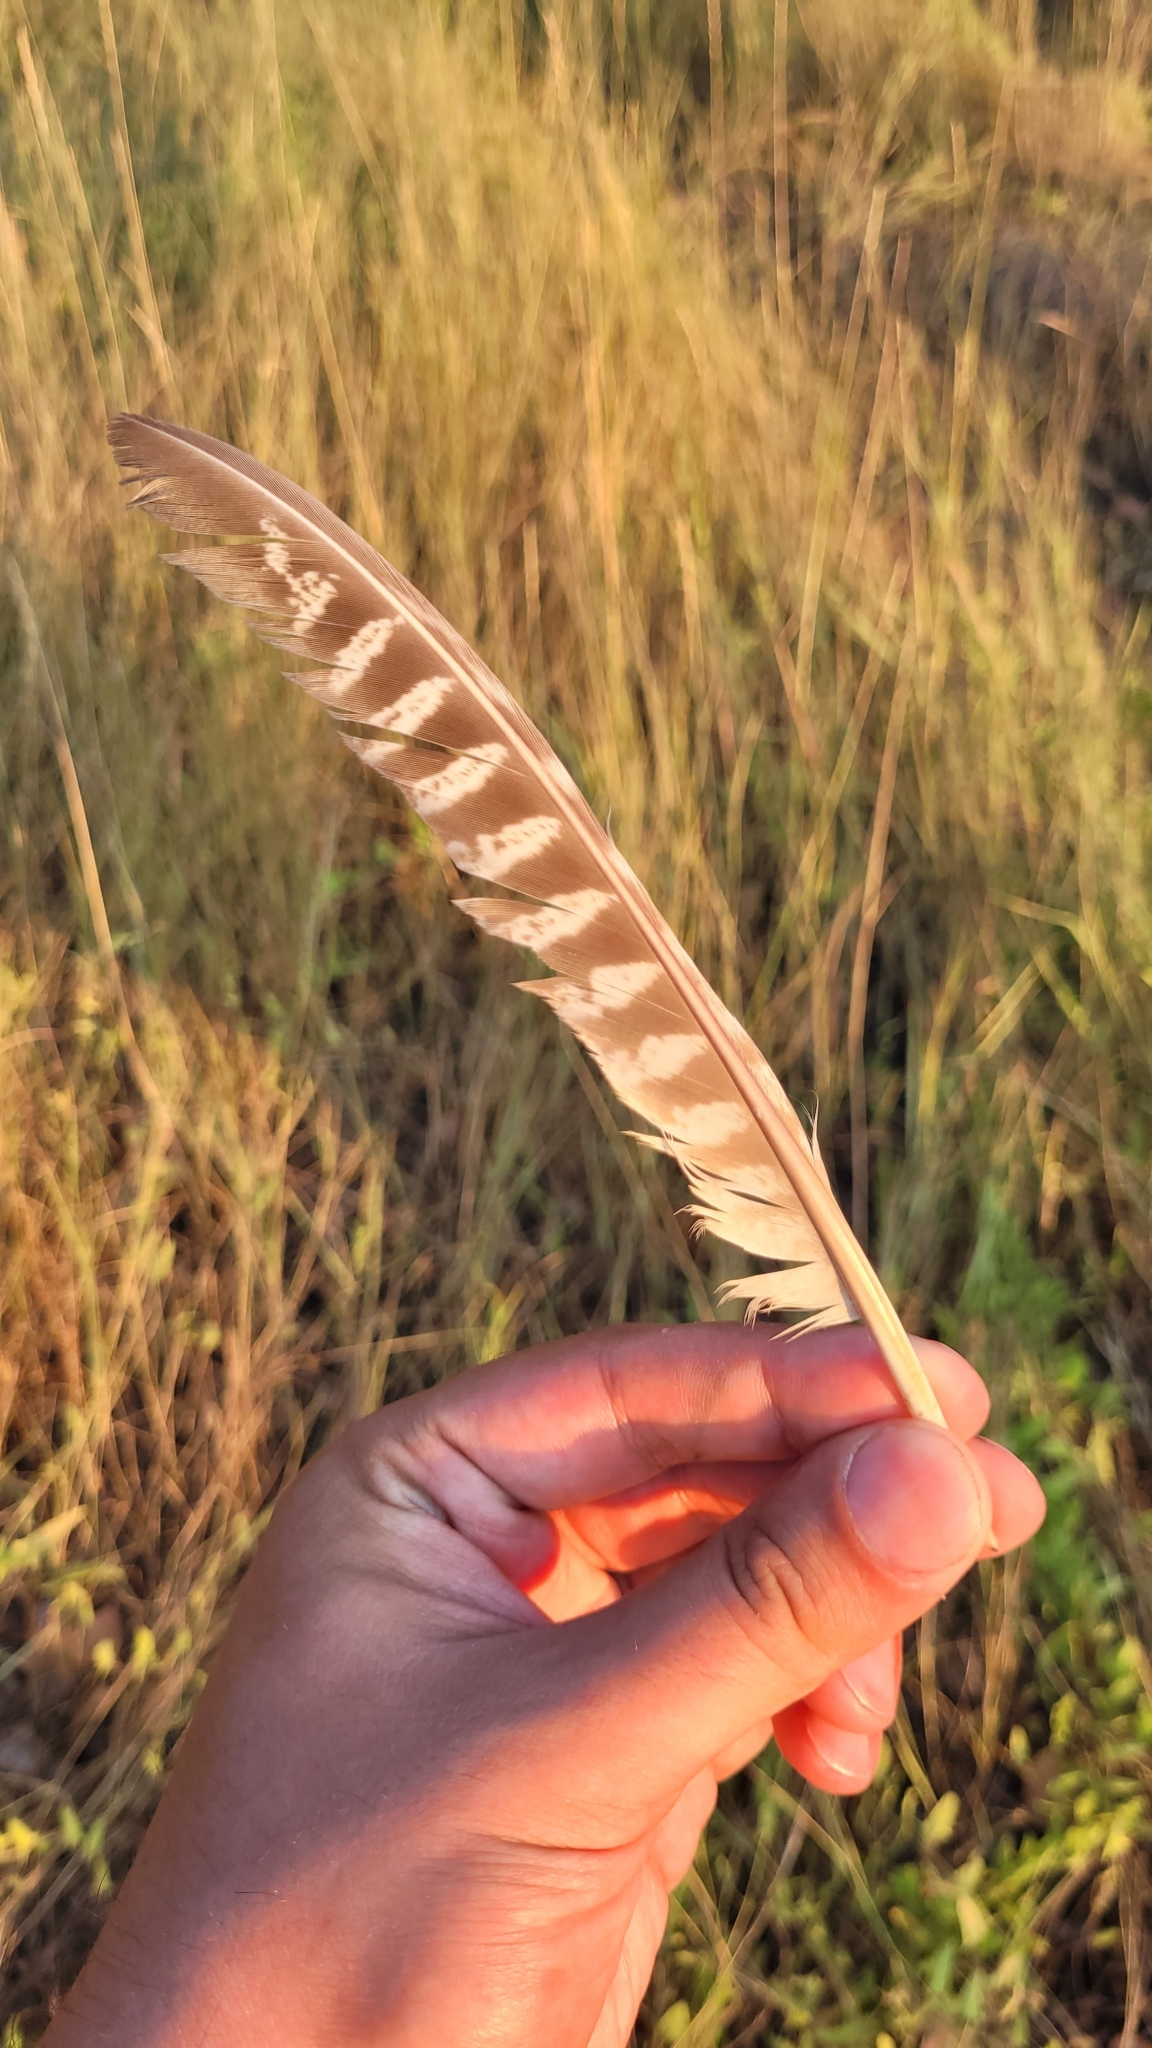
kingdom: Animalia
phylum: Chordata
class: Aves
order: Galliformes
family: Phasianidae
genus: Phasianus
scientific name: Phasianus colchicus
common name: Common pheasant
